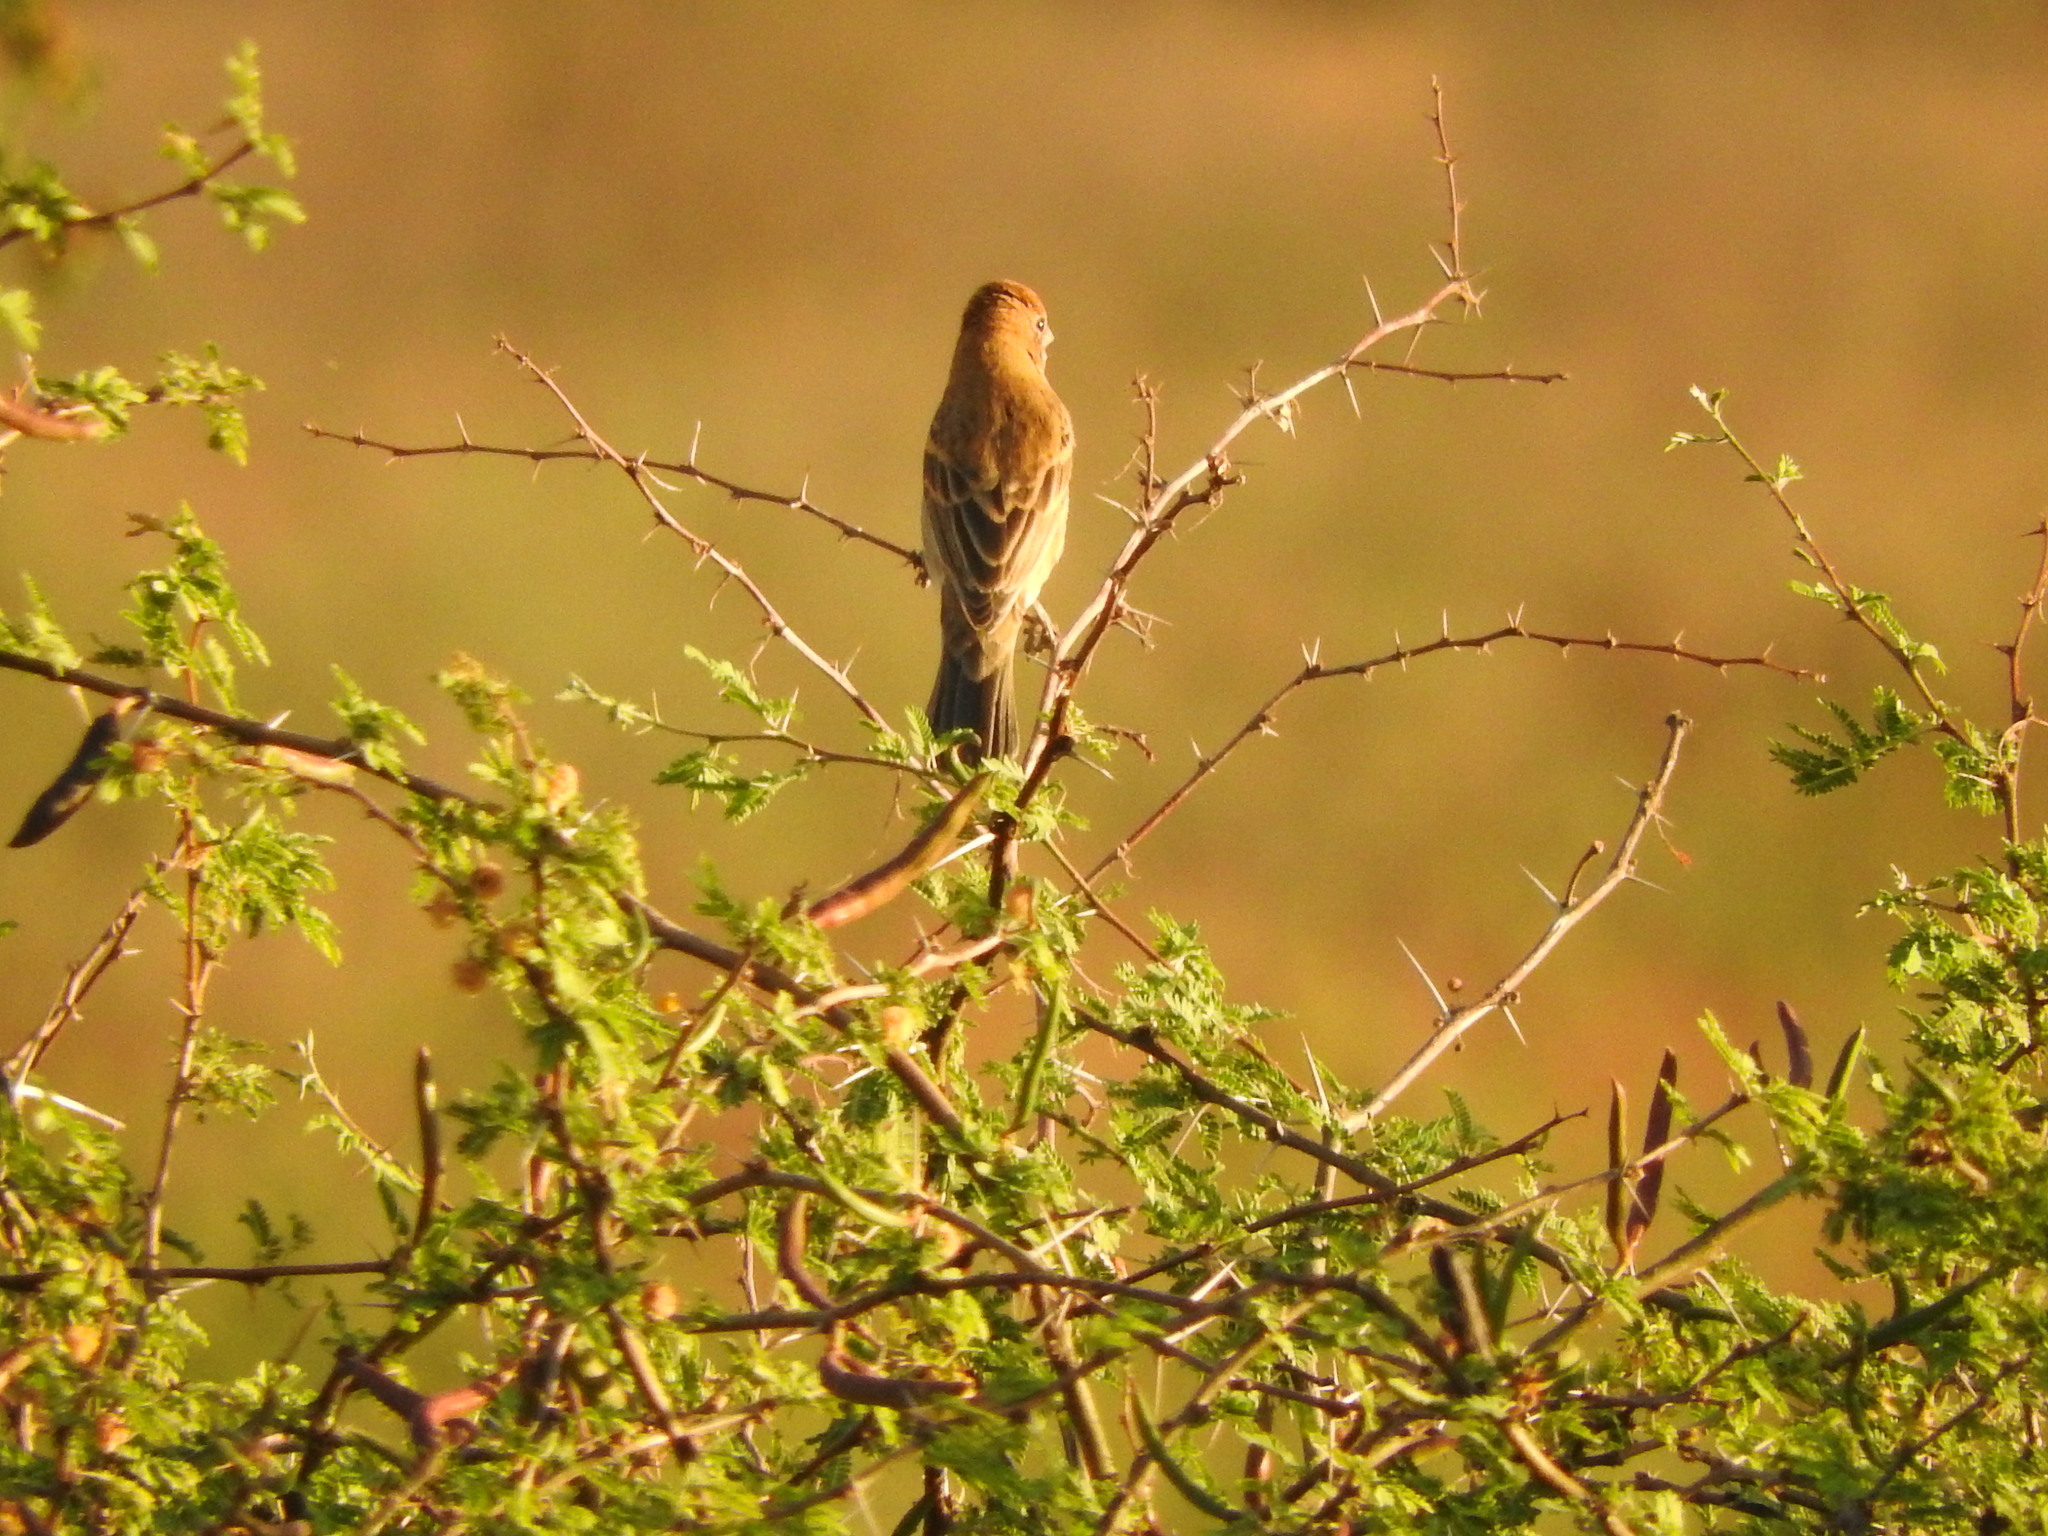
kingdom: Animalia
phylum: Chordata
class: Aves
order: Passeriformes
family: Cardinalidae
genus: Passerina
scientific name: Passerina caerulea
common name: Blue grosbeak
